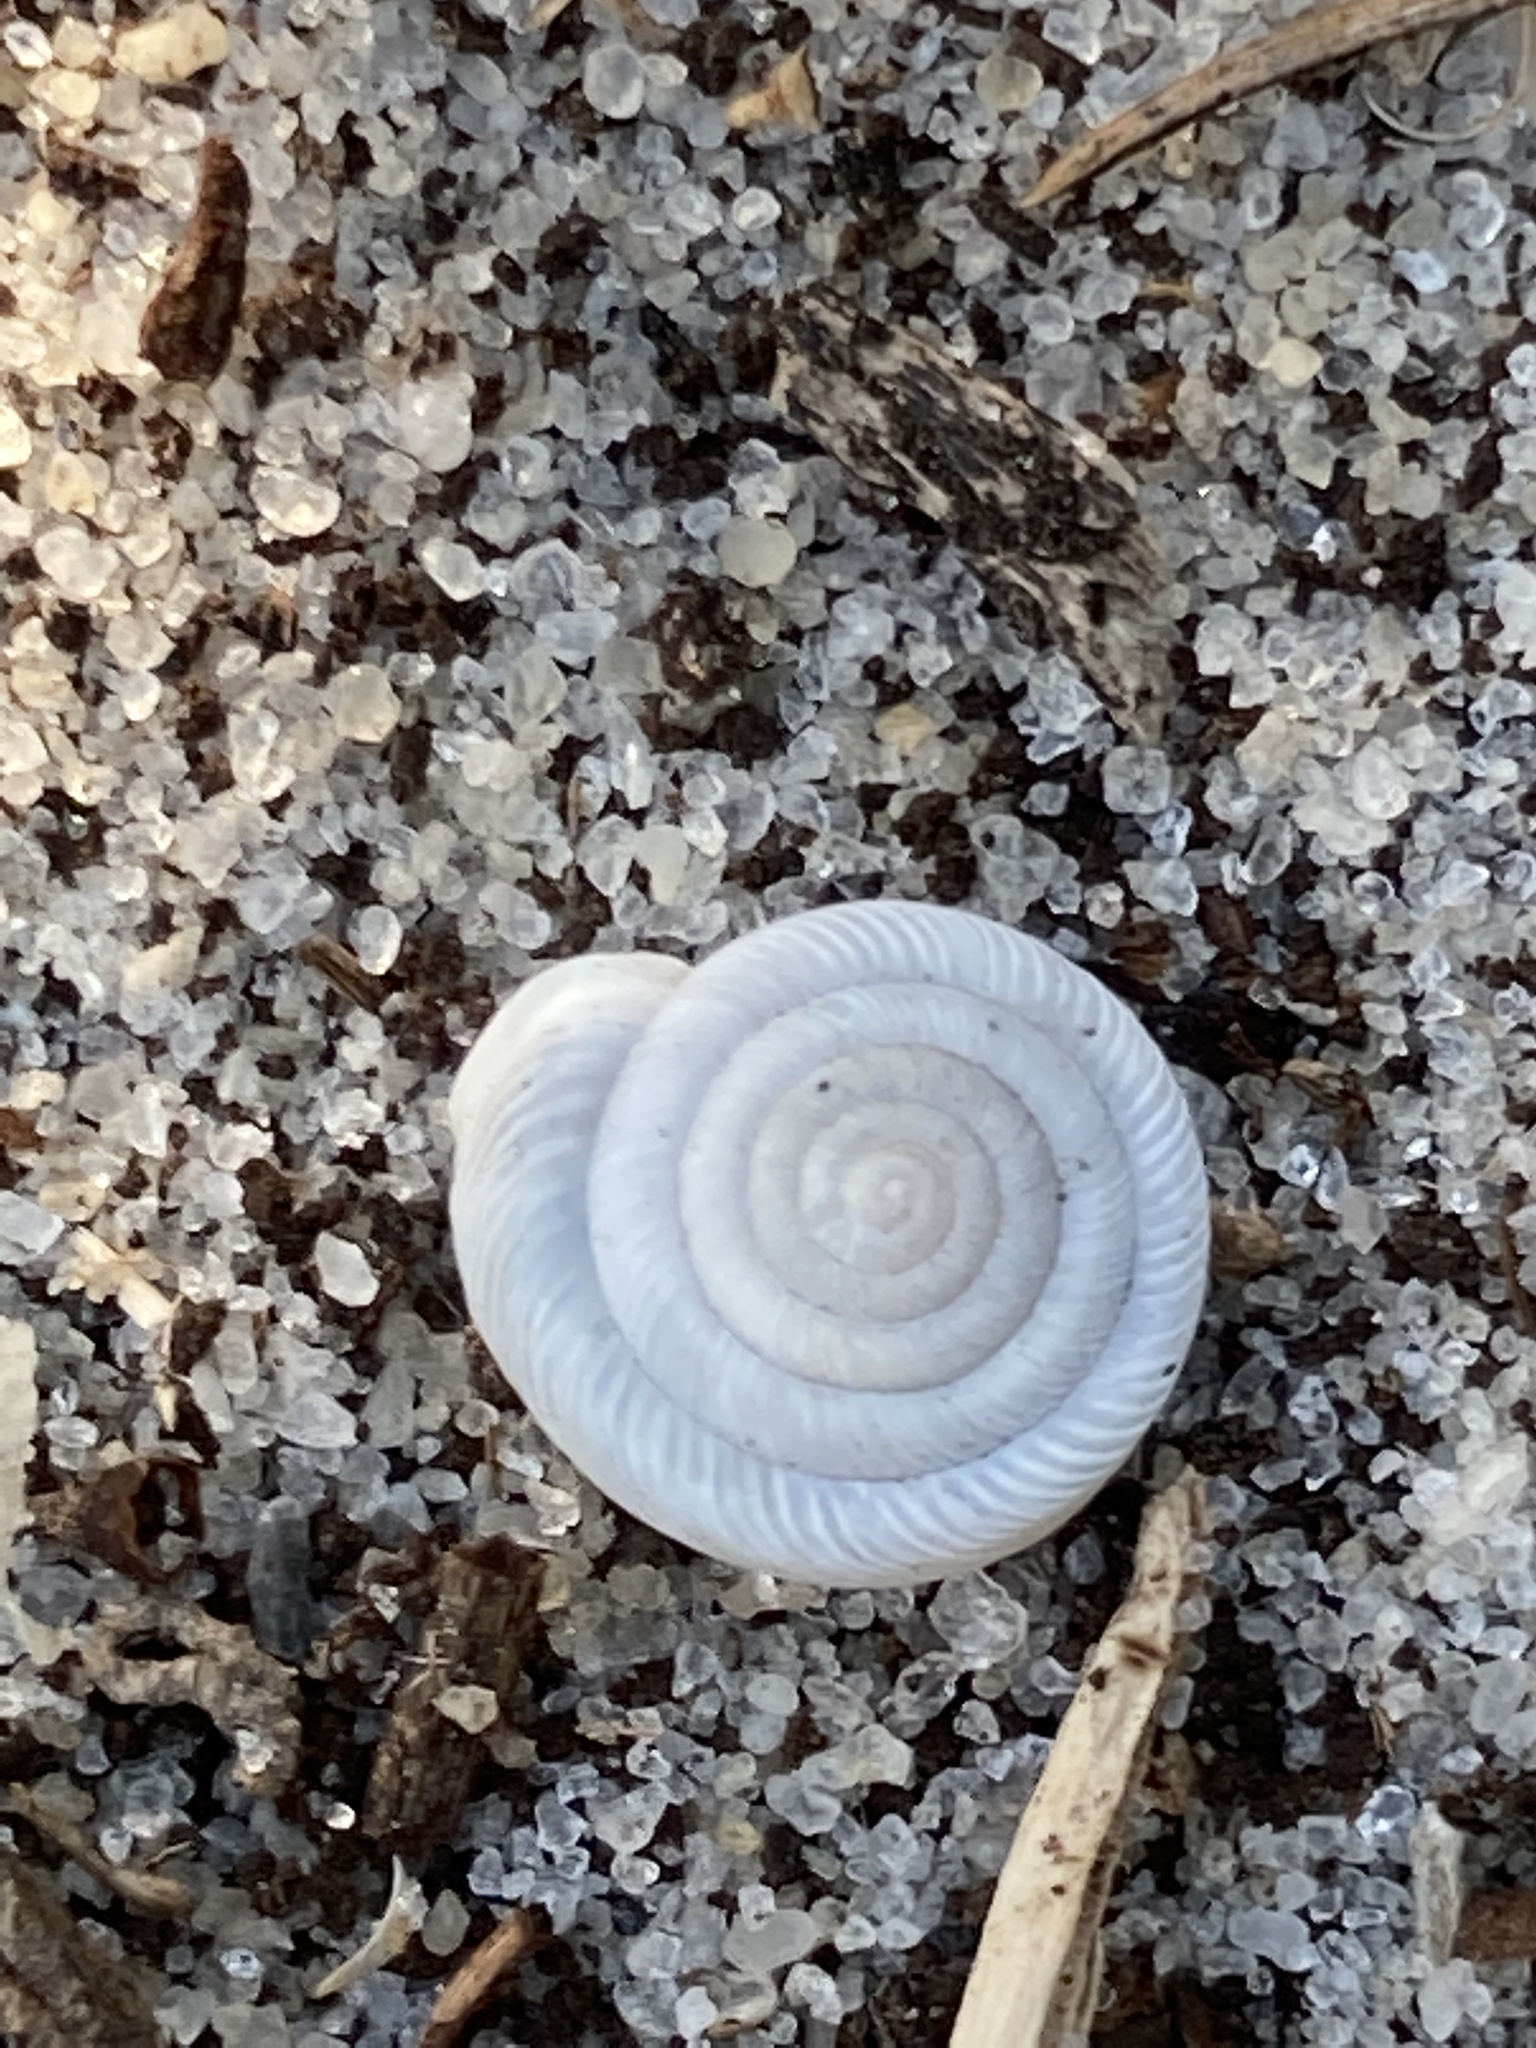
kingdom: Animalia
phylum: Mollusca
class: Gastropoda
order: Stylommatophora
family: Polygyridae
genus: Polygyra
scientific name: Polygyra cereolus
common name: Southern flatcone snail
